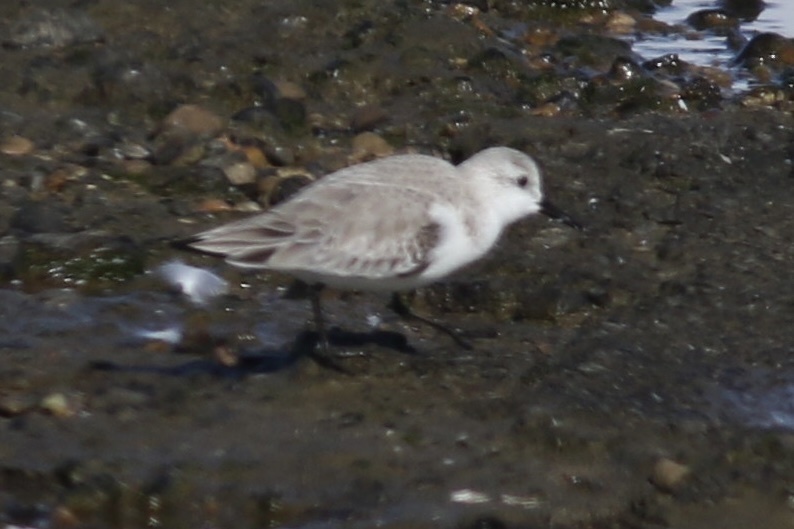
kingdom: Animalia
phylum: Chordata
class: Aves
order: Charadriiformes
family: Scolopacidae
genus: Calidris
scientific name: Calidris alba
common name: Sanderling
